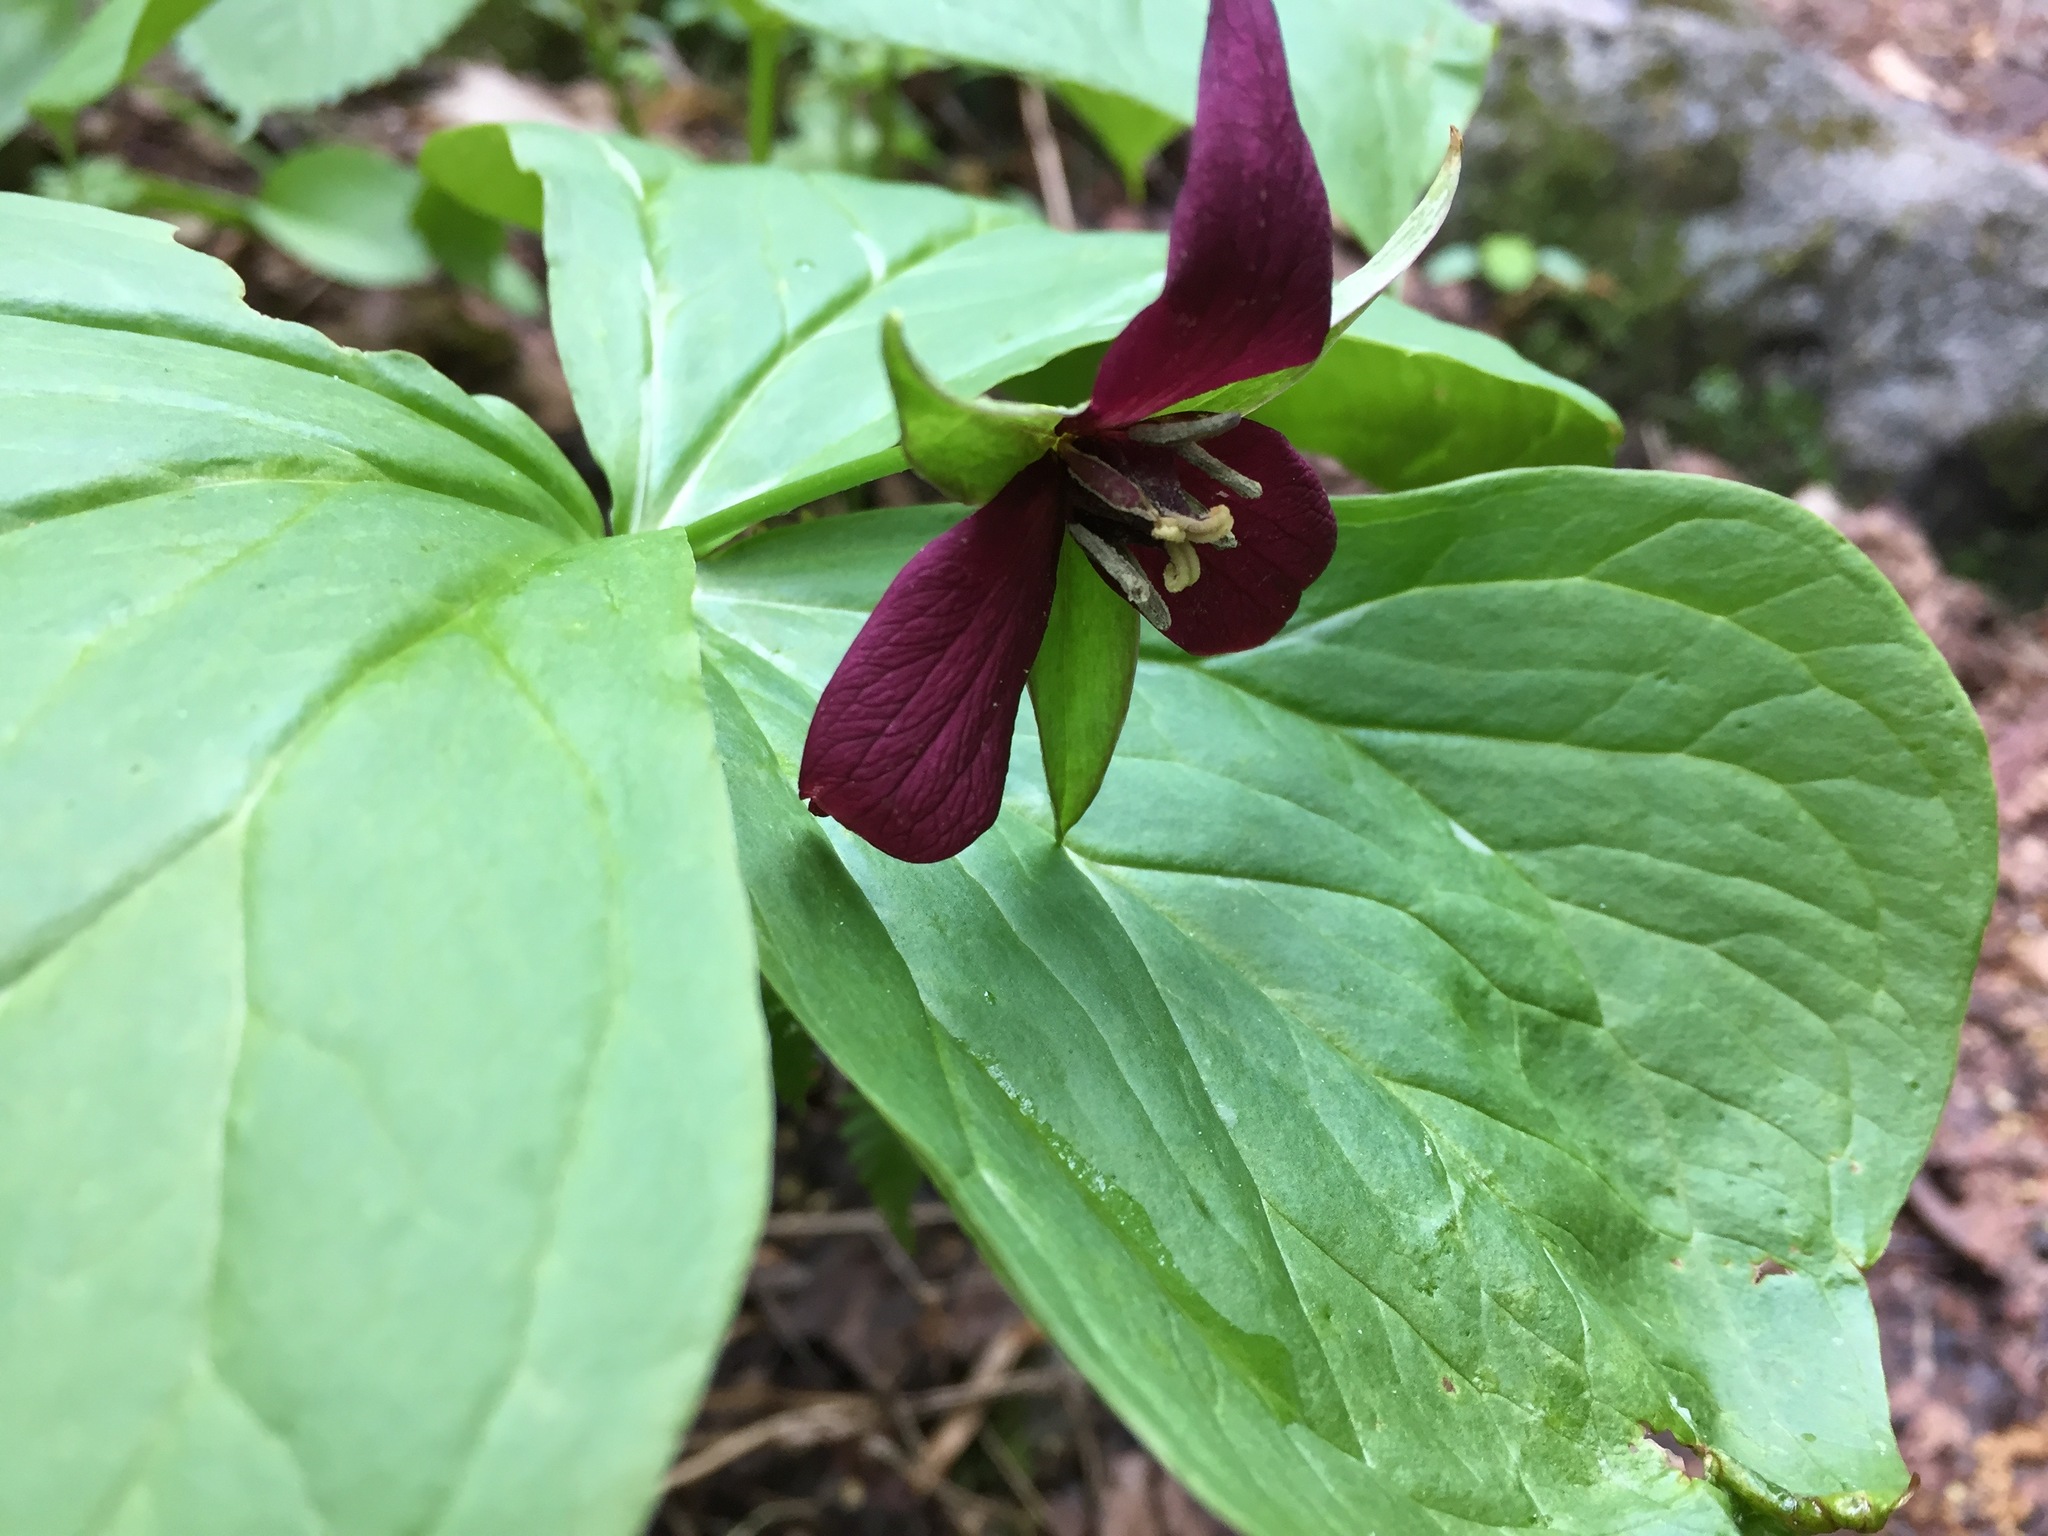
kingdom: Plantae
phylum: Tracheophyta
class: Liliopsida
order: Liliales
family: Melanthiaceae
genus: Trillium
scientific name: Trillium erectum
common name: Purple trillium
